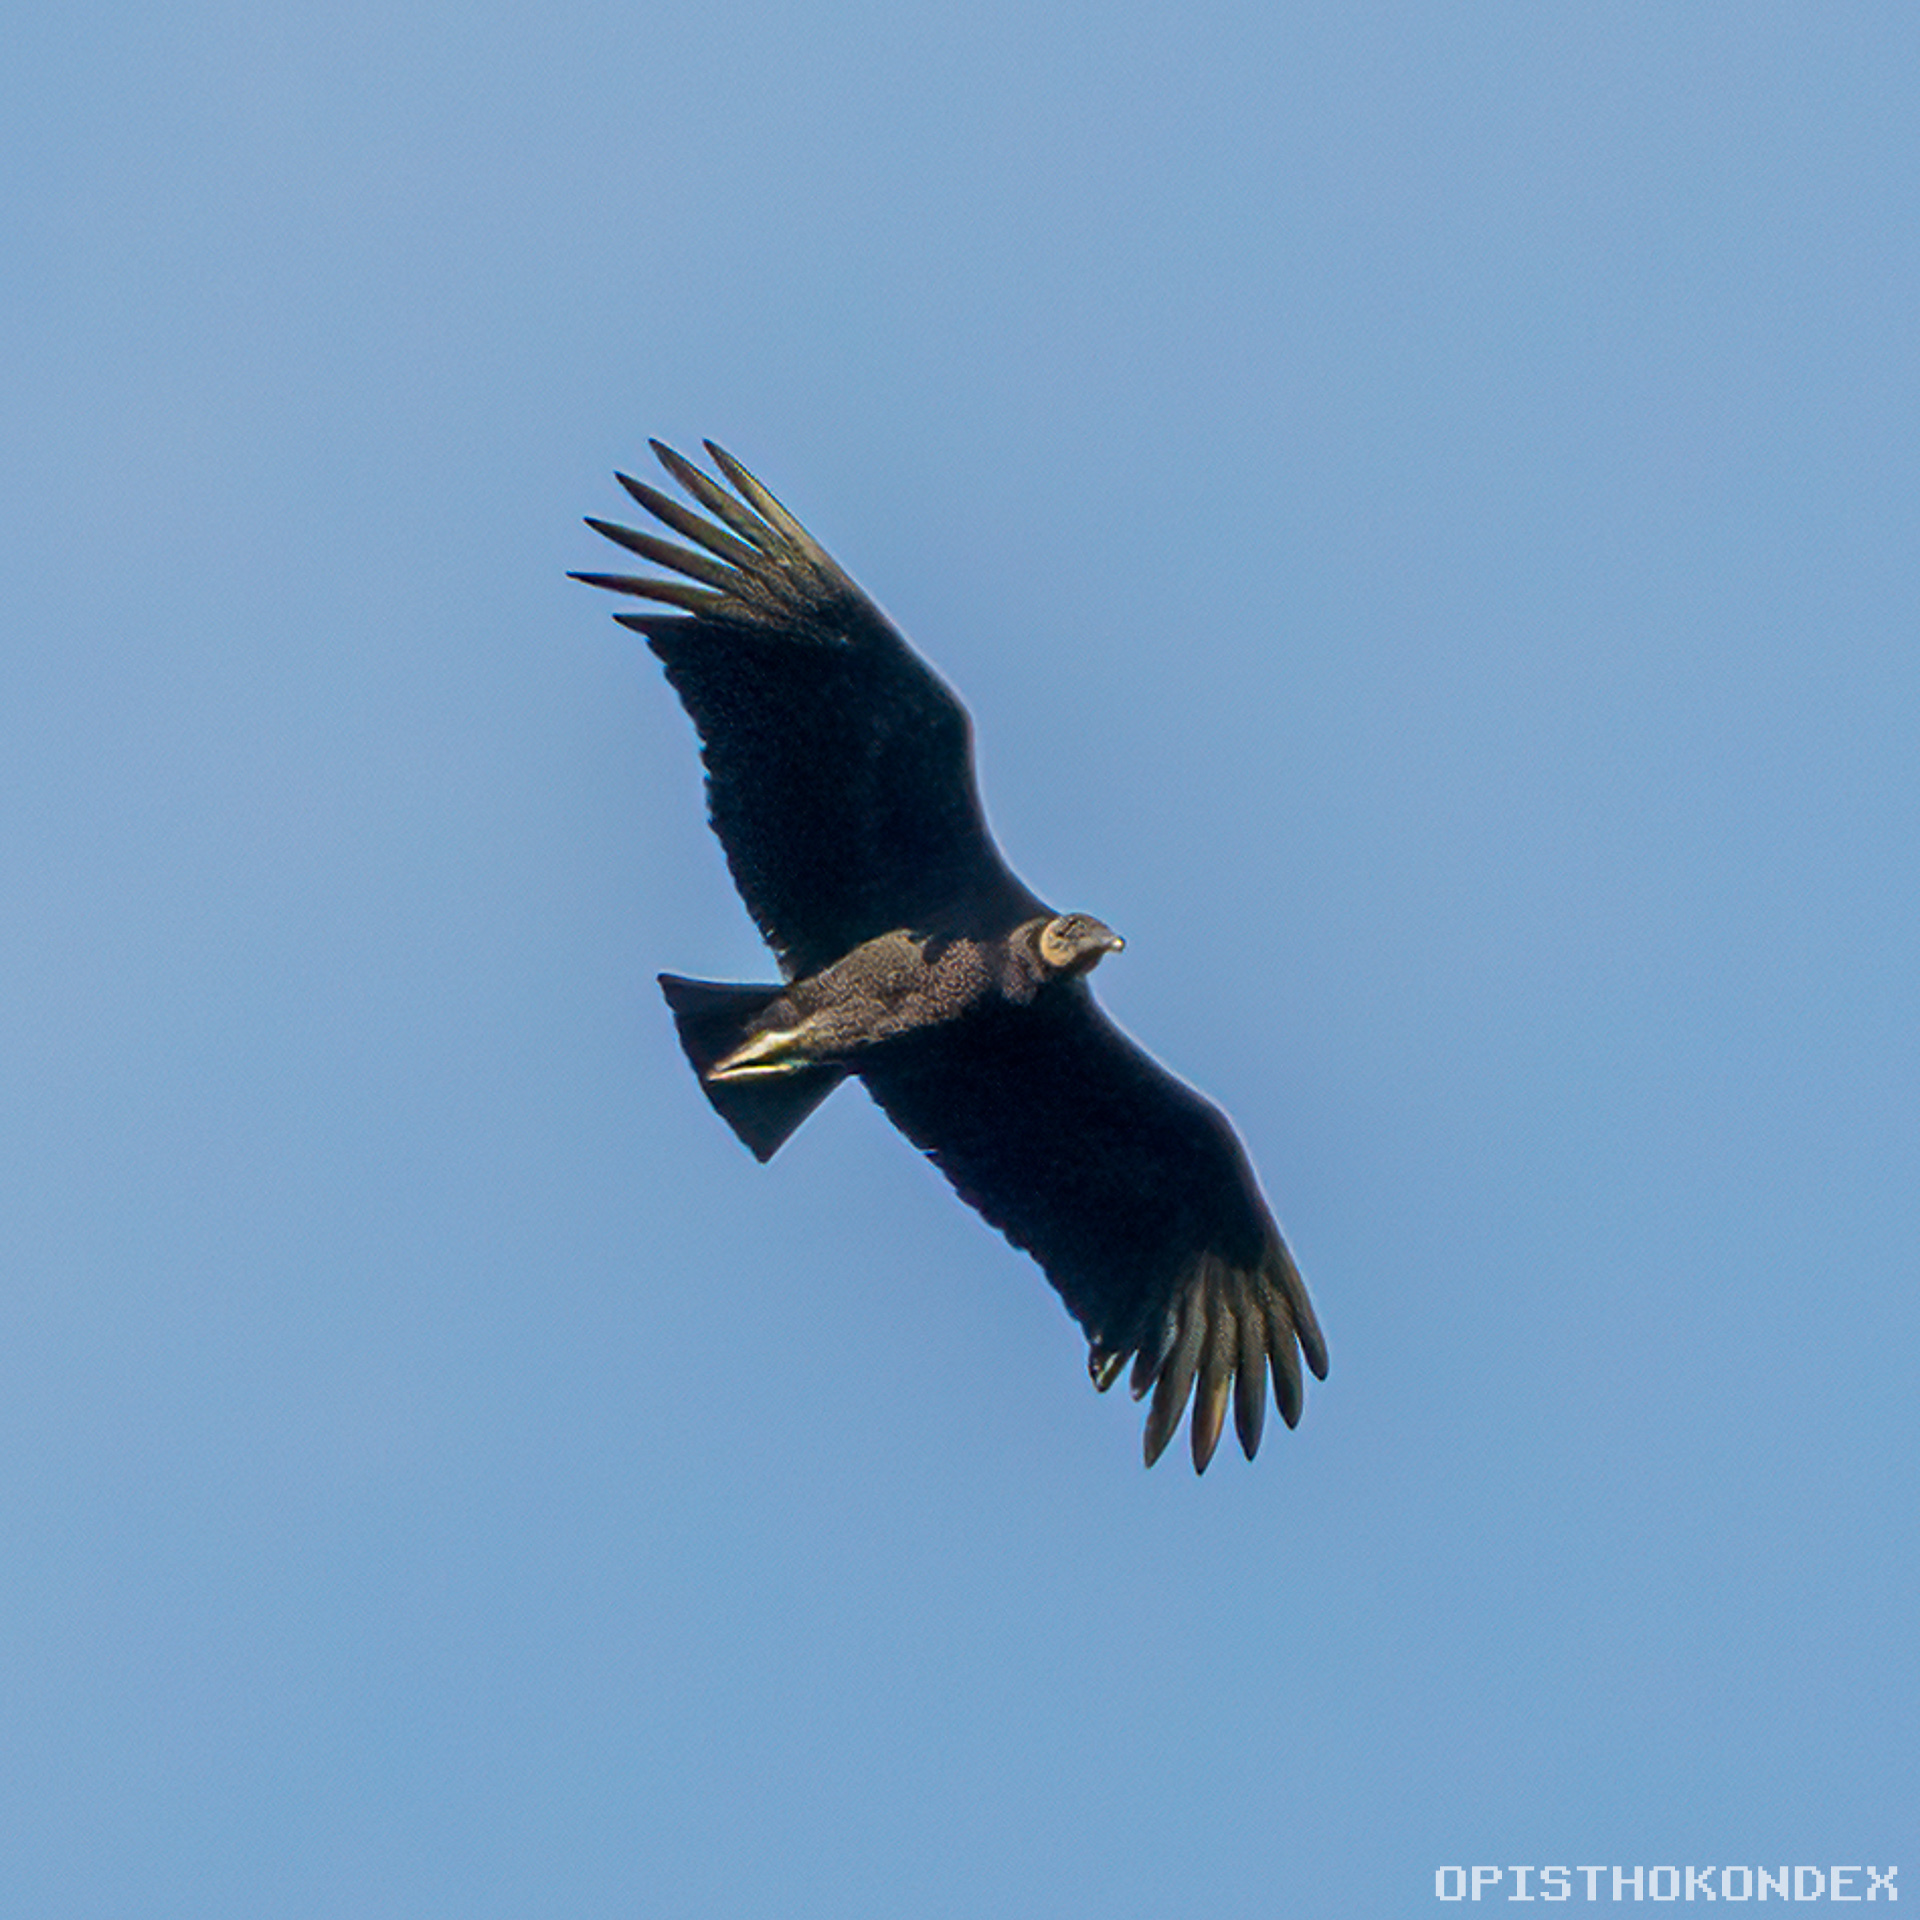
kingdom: Animalia
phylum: Chordata
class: Aves
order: Accipitriformes
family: Cathartidae
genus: Coragyps
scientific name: Coragyps atratus
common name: Black vulture
